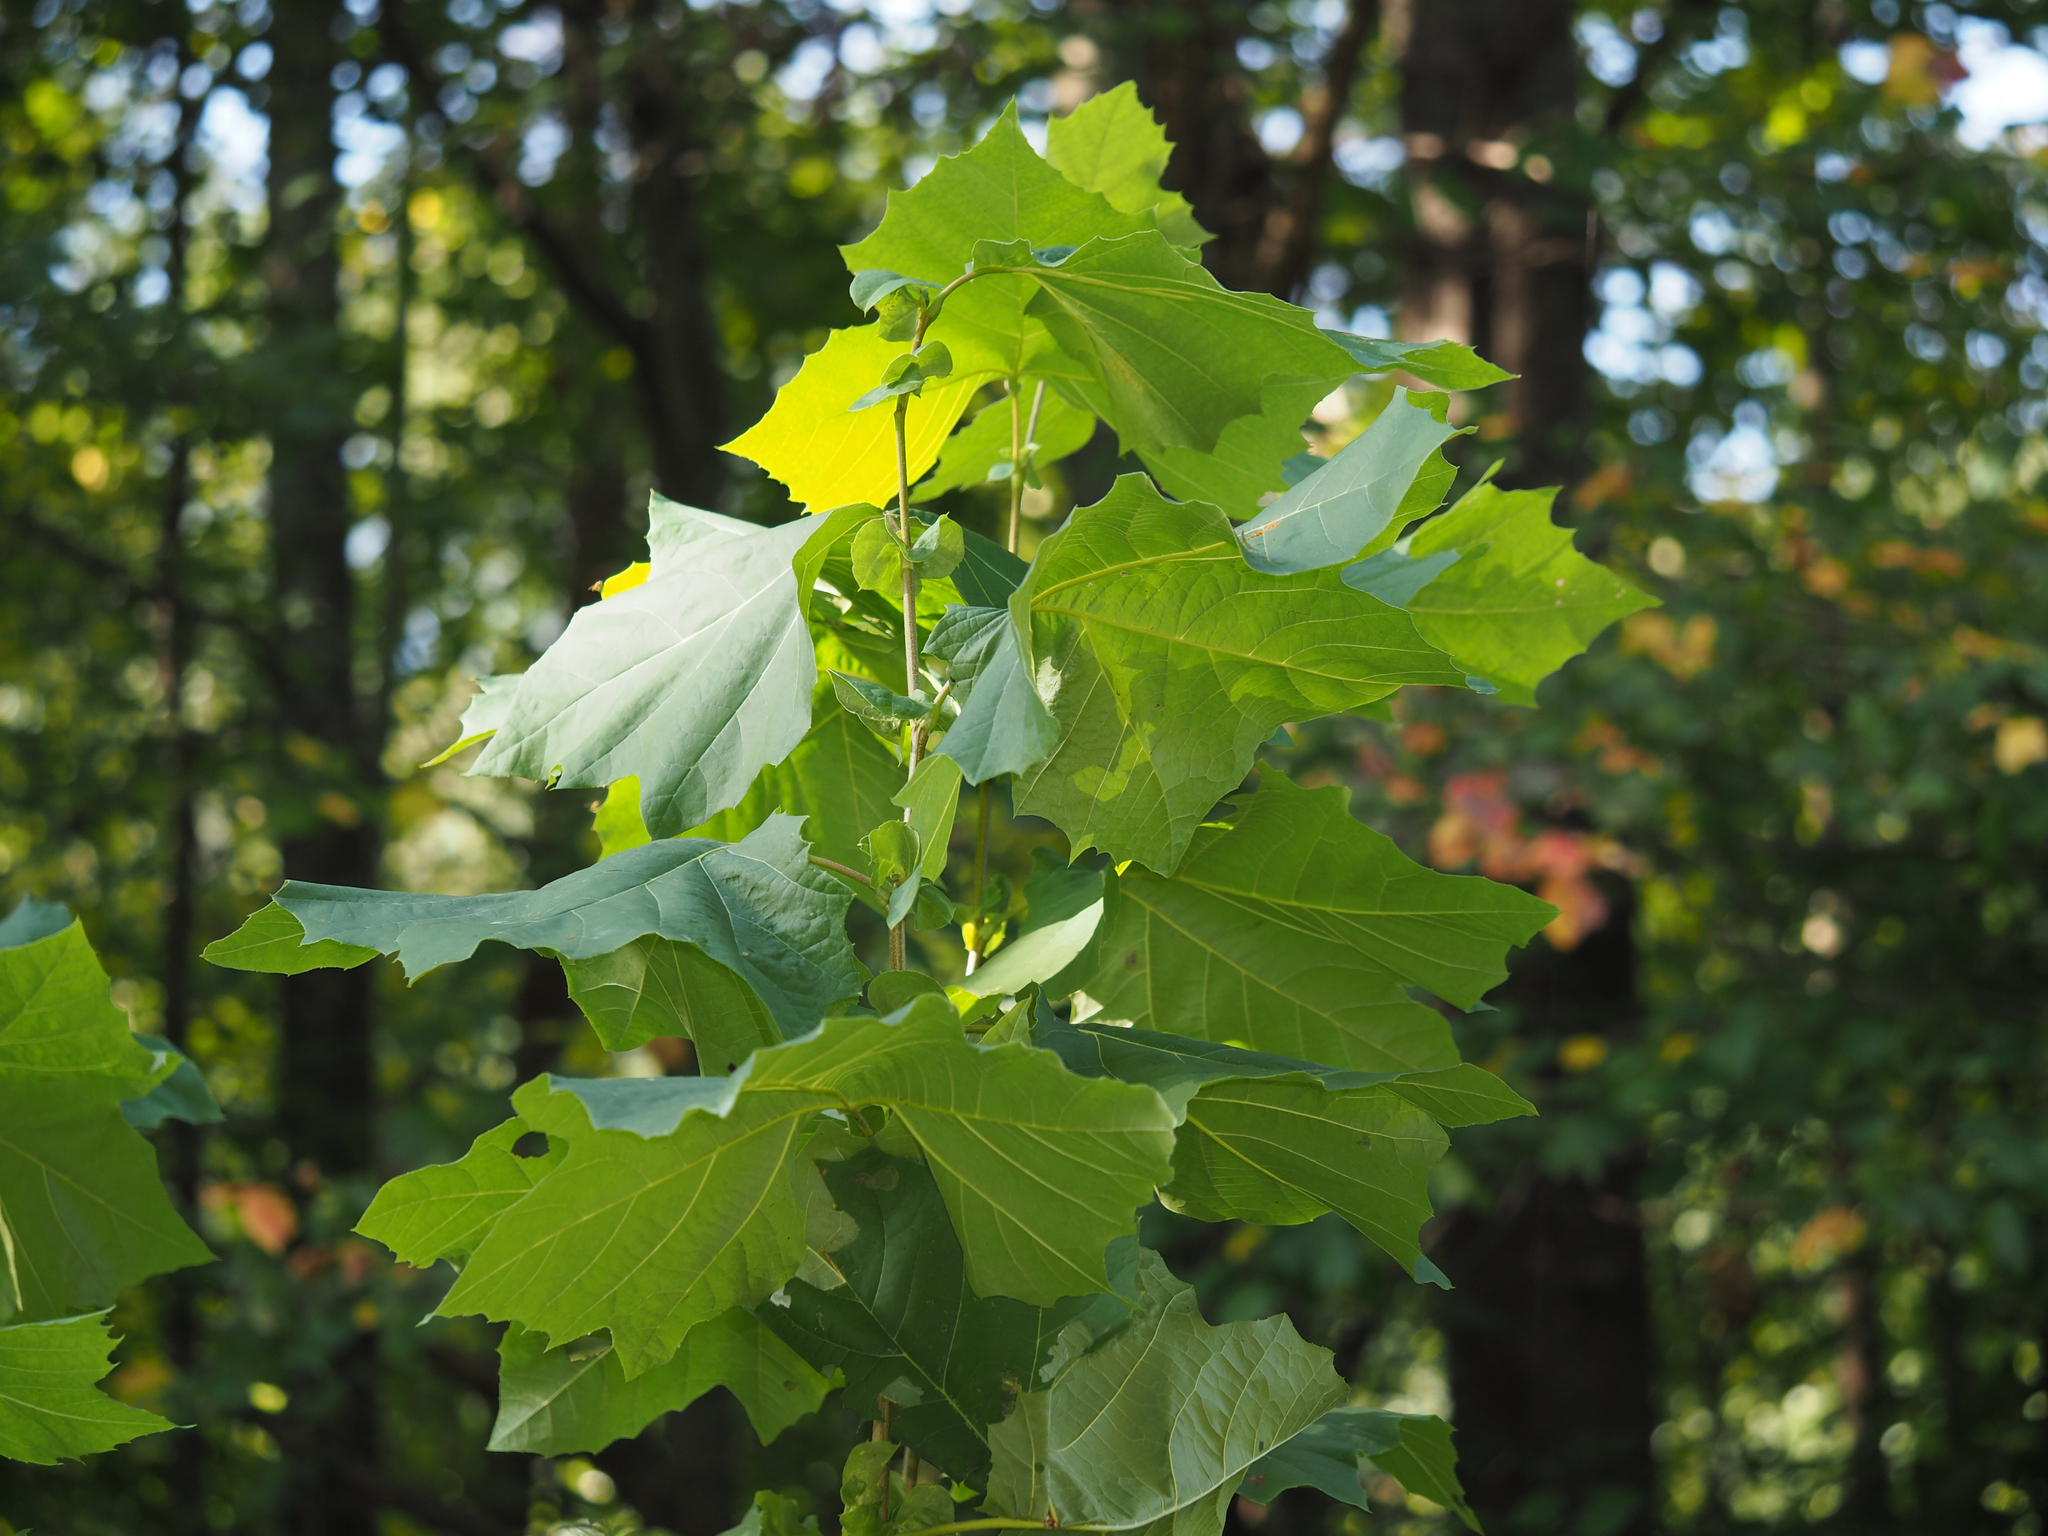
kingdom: Plantae
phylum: Tracheophyta
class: Magnoliopsida
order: Proteales
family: Platanaceae
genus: Platanus
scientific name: Platanus occidentalis
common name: American sycamore
